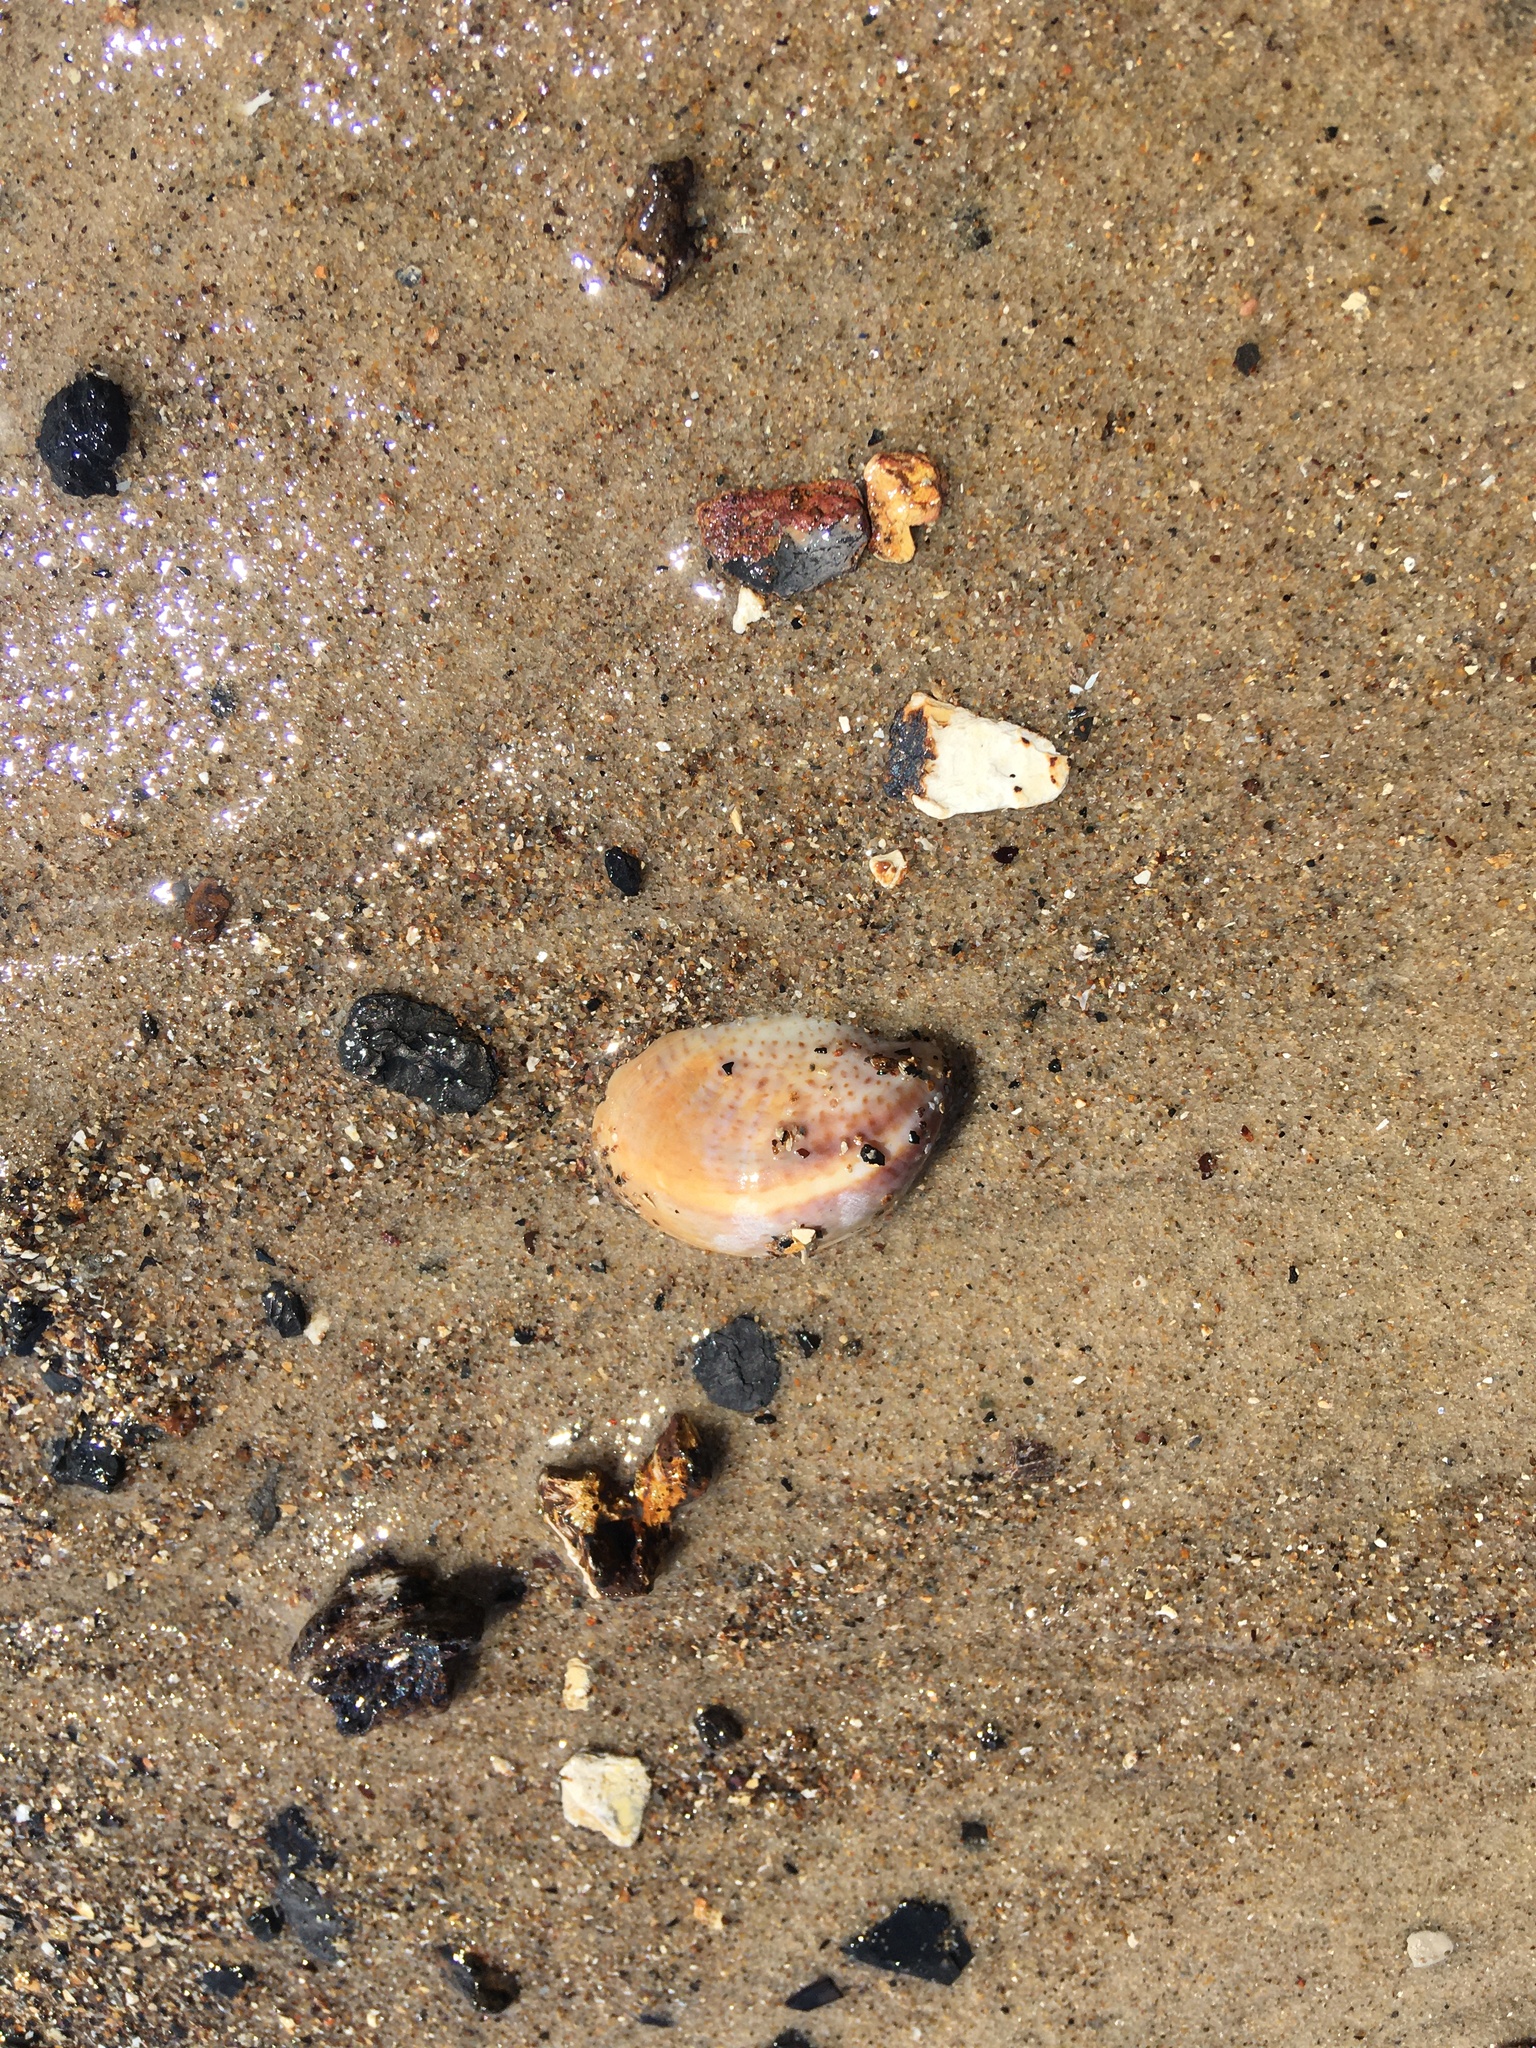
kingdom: Animalia
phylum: Mollusca
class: Gastropoda
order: Littorinimorpha
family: Calyptraeidae
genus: Crepidula
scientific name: Crepidula fornicata
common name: Slipper limpet
